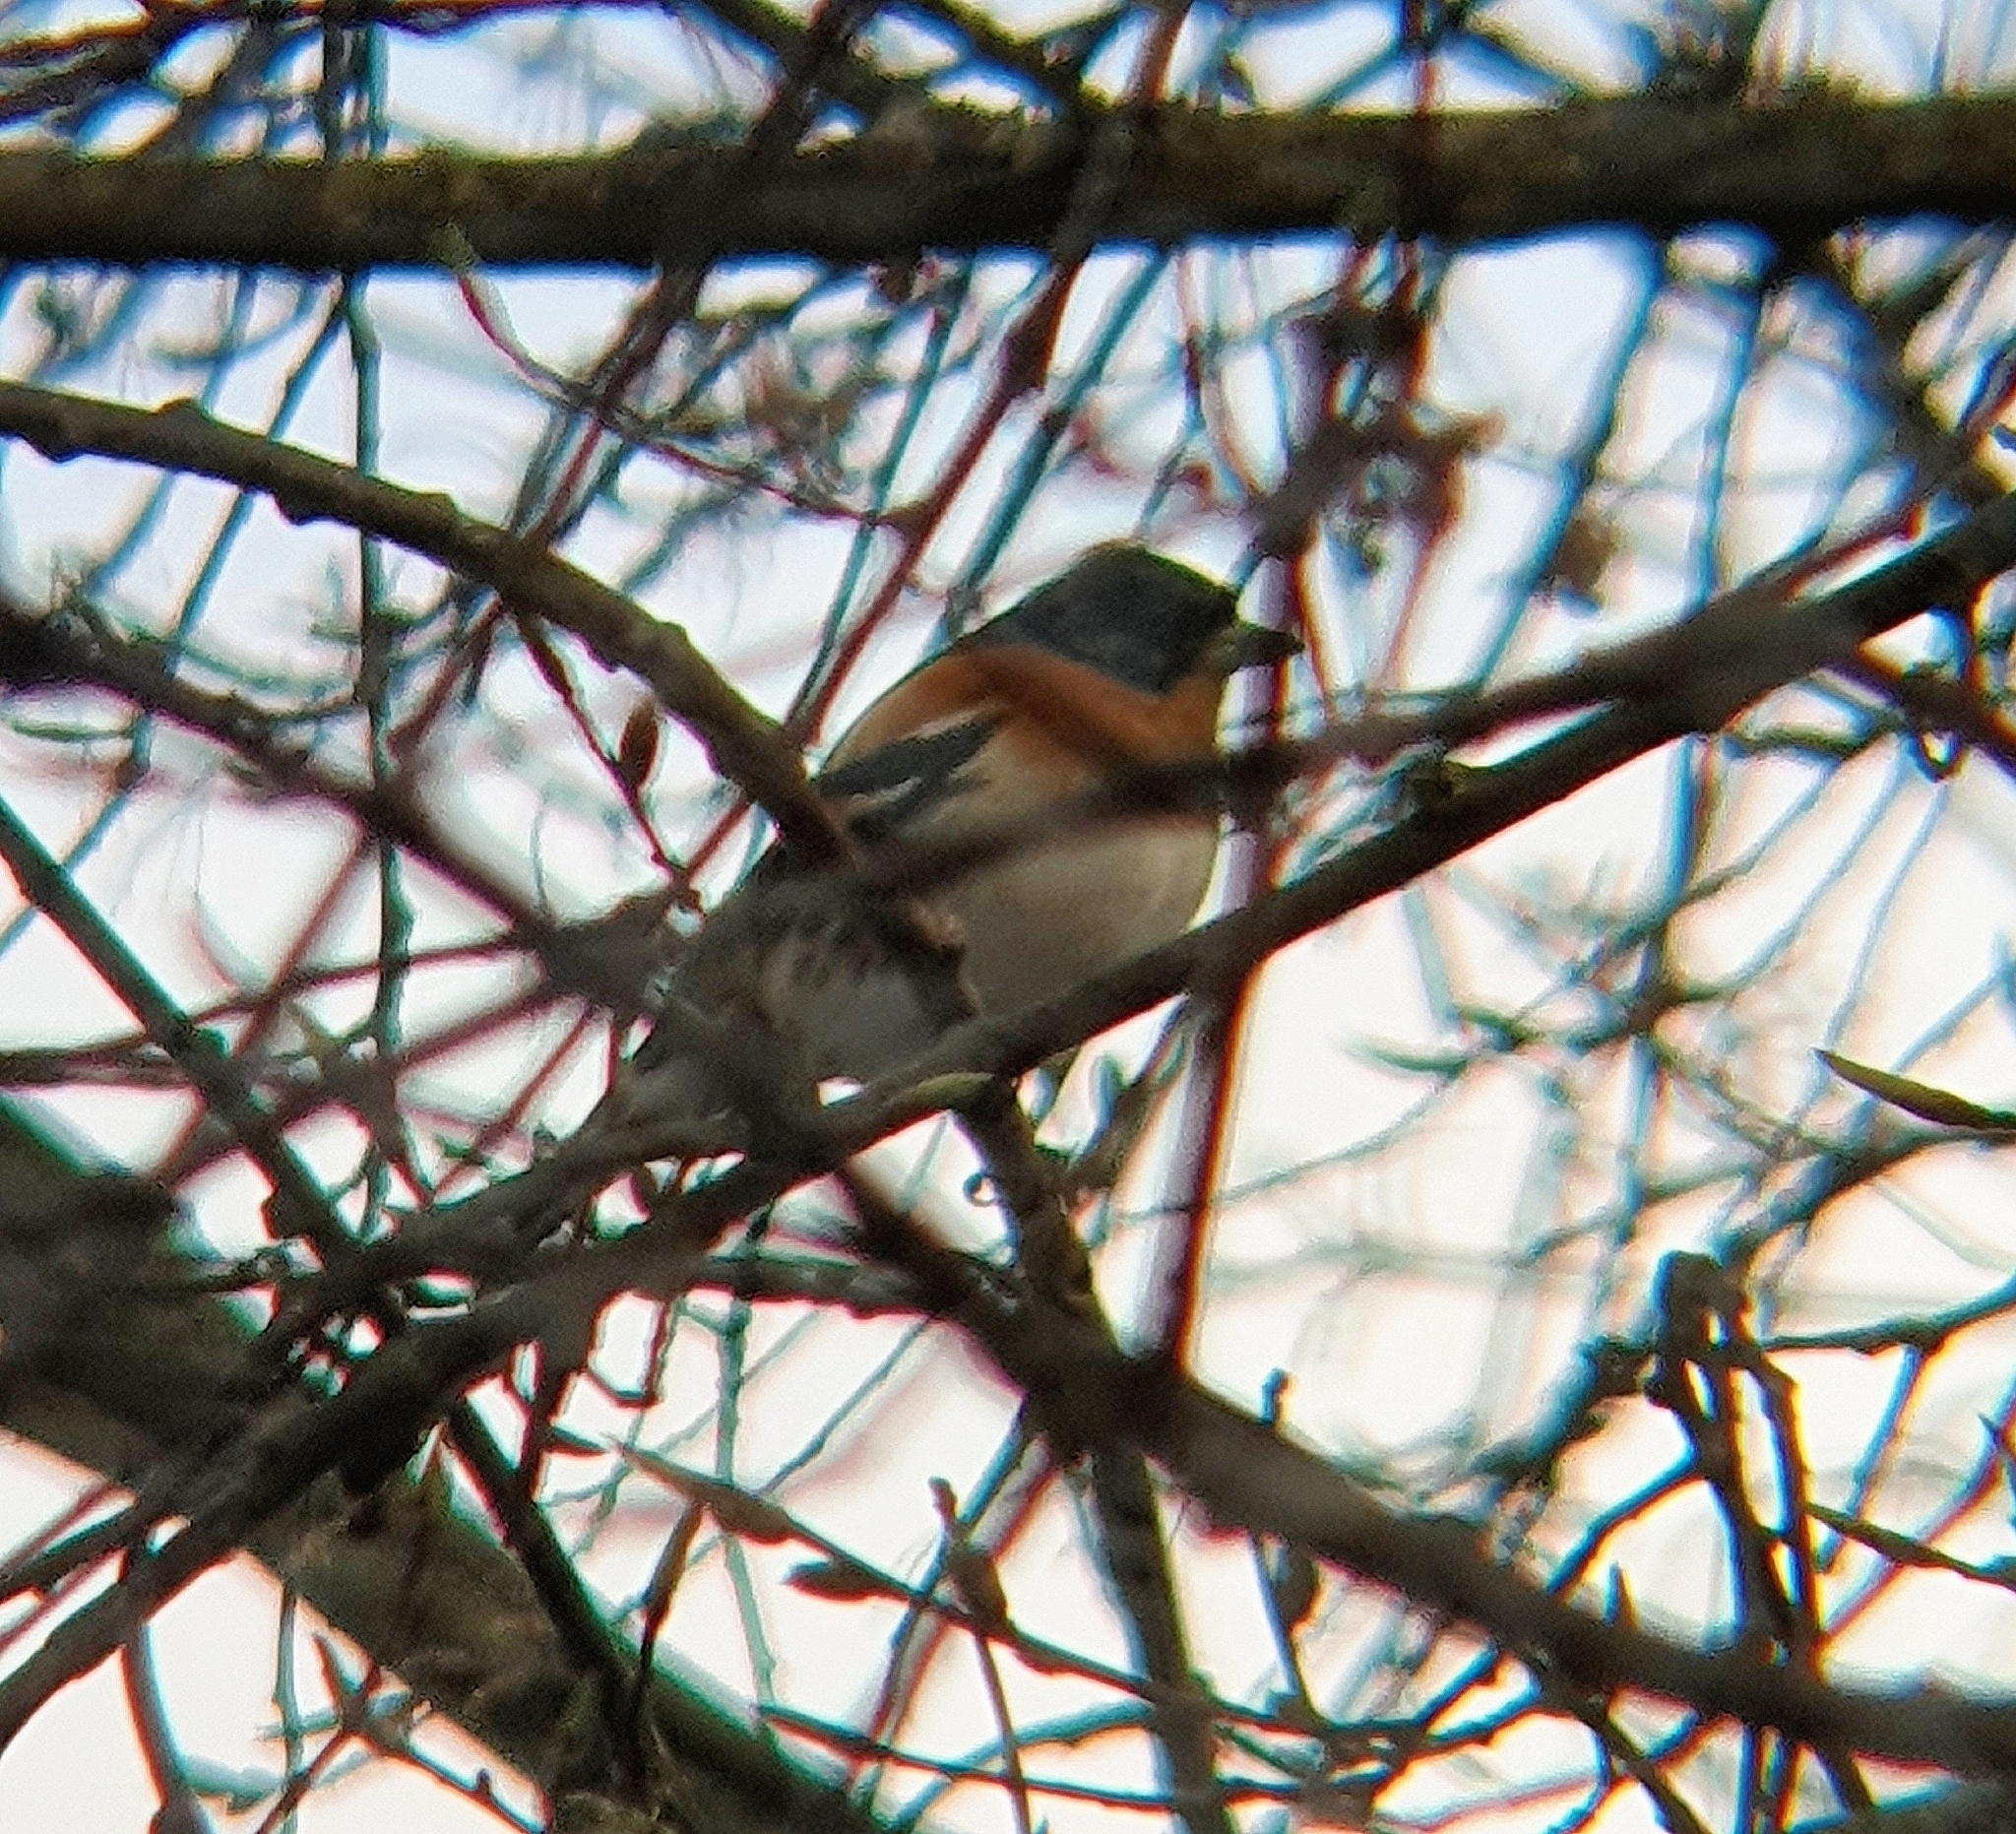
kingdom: Animalia
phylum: Chordata
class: Aves
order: Passeriformes
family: Fringillidae
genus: Fringilla
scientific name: Fringilla montifringilla
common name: Brambling
